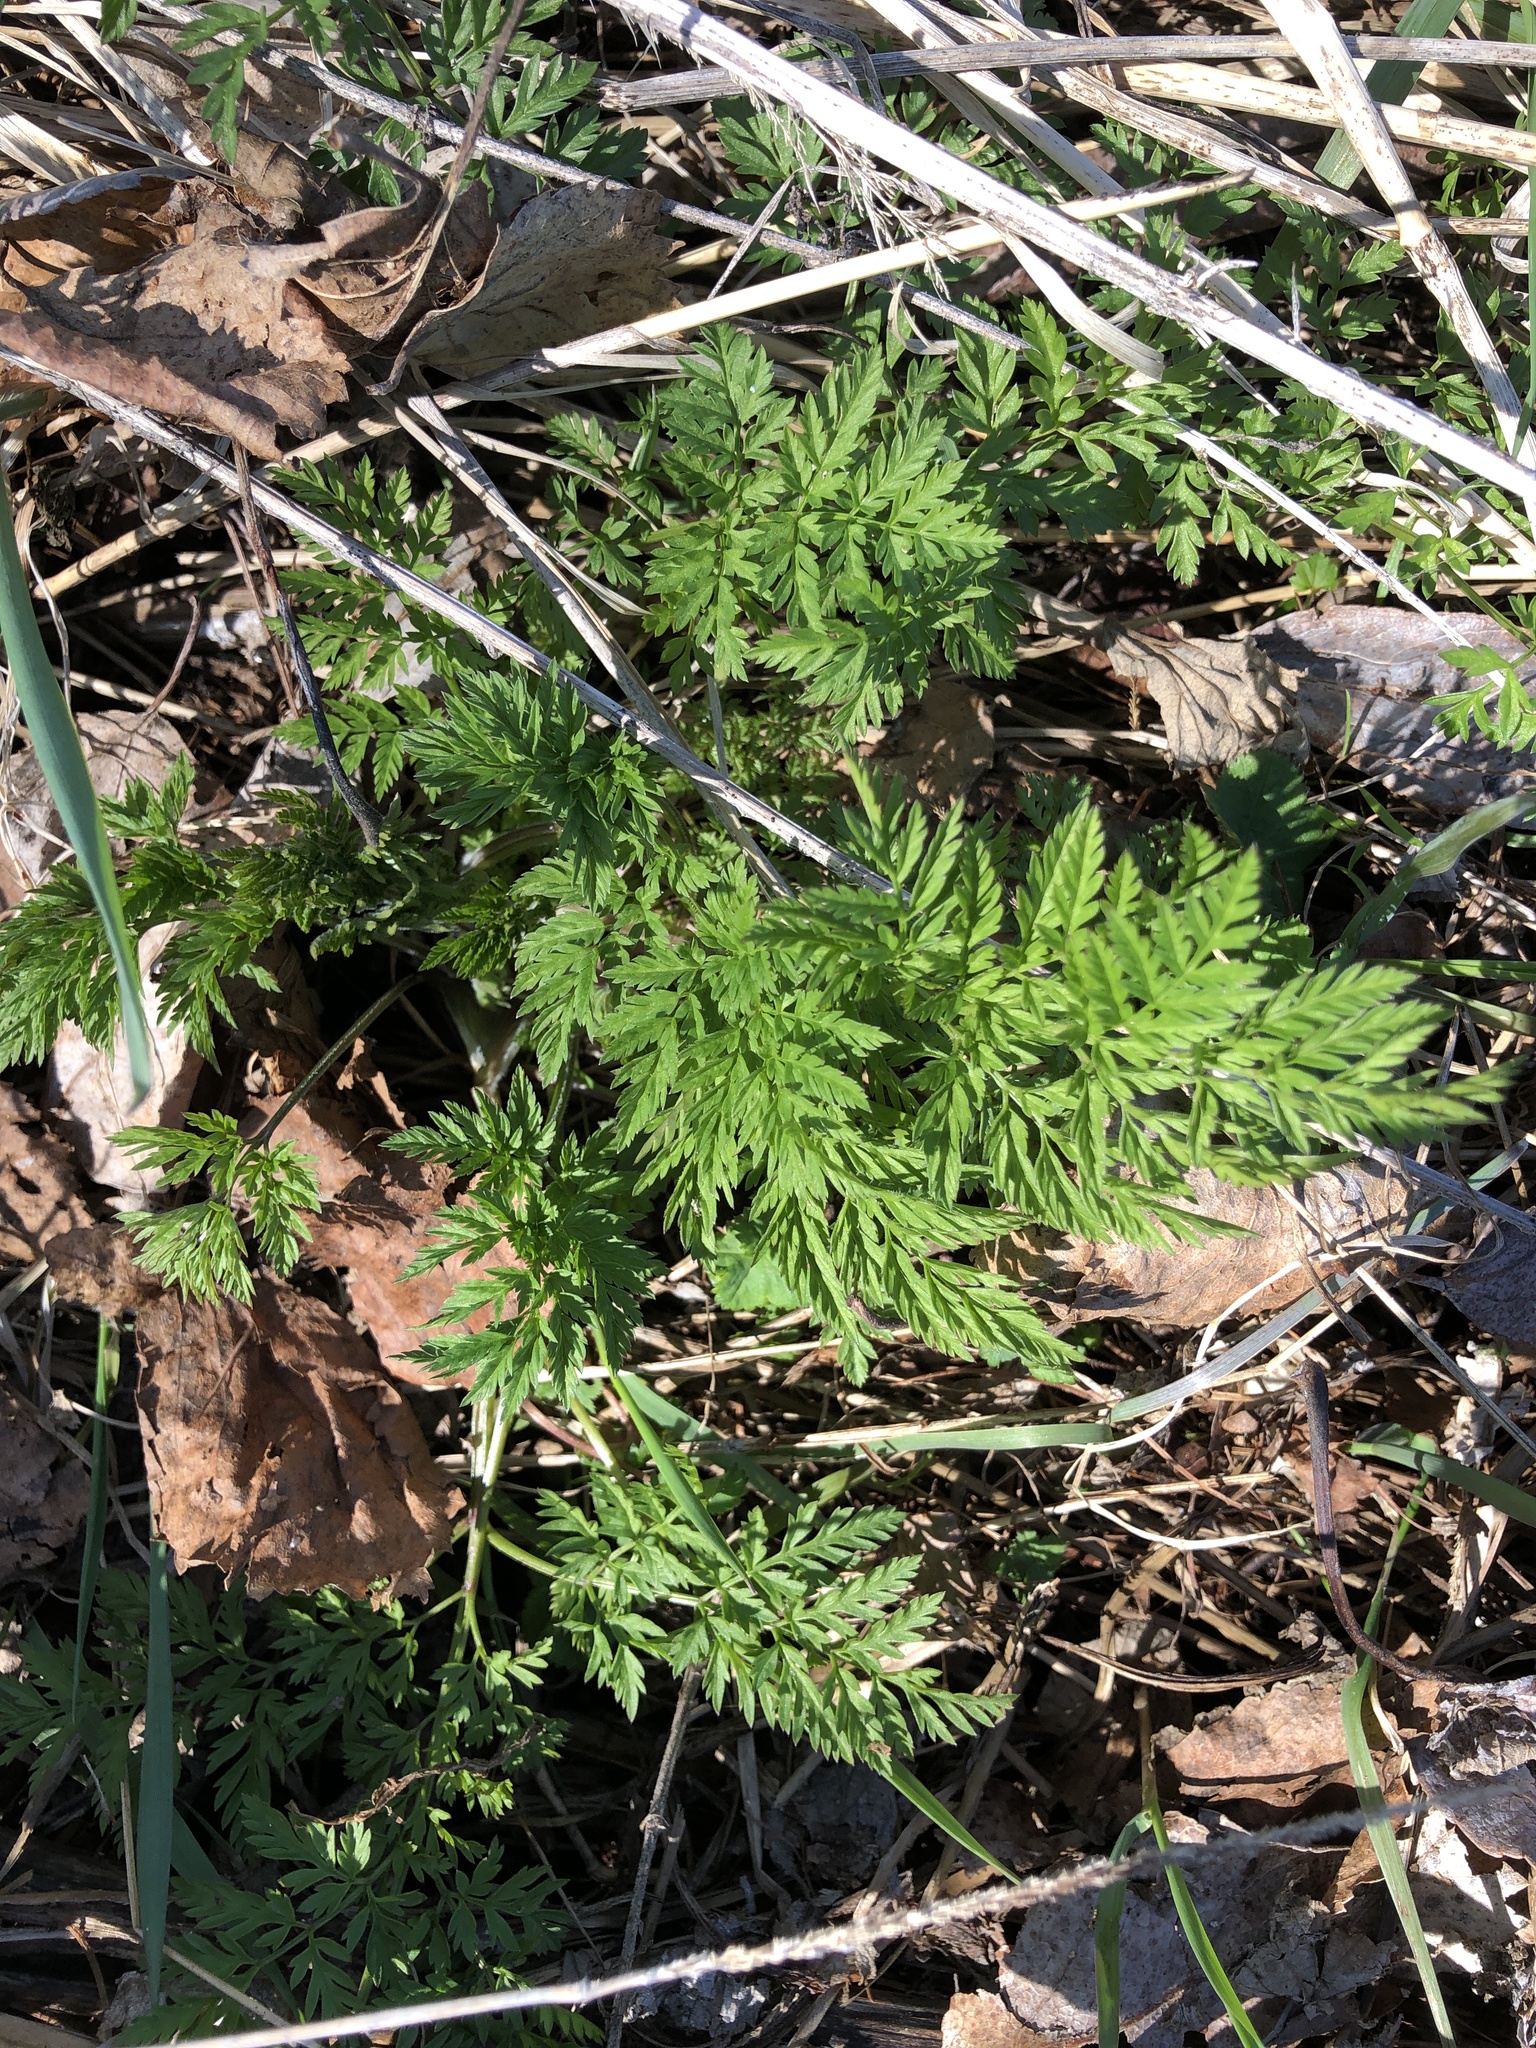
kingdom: Plantae
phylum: Tracheophyta
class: Magnoliopsida
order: Apiales
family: Apiaceae
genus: Anthriscus
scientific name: Anthriscus sylvestris
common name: Cow parsley
